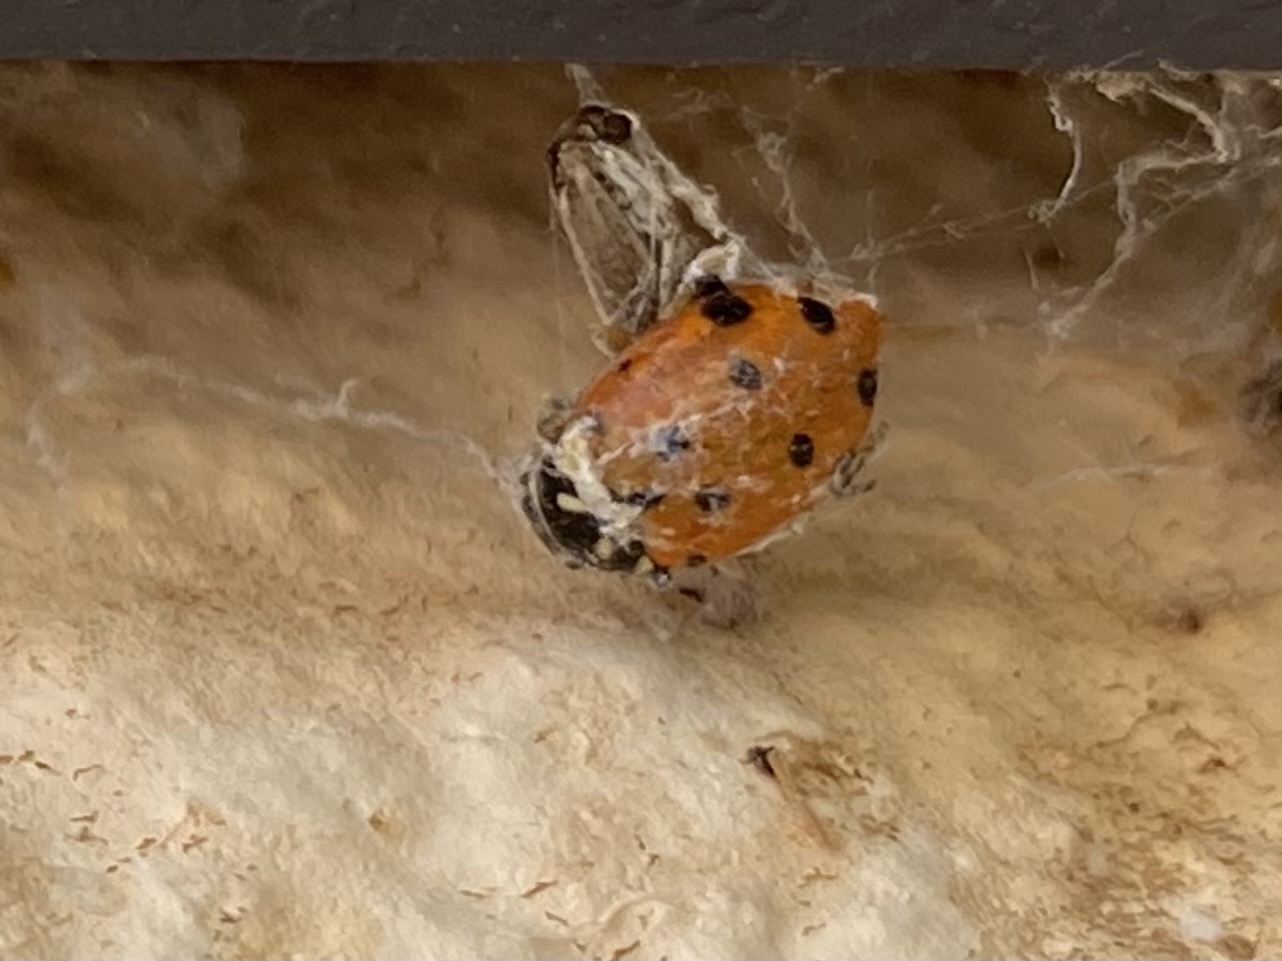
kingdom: Animalia
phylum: Arthropoda
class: Insecta
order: Coleoptera
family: Coccinellidae
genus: Hippodamia
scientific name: Hippodamia convergens
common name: Convergent lady beetle
